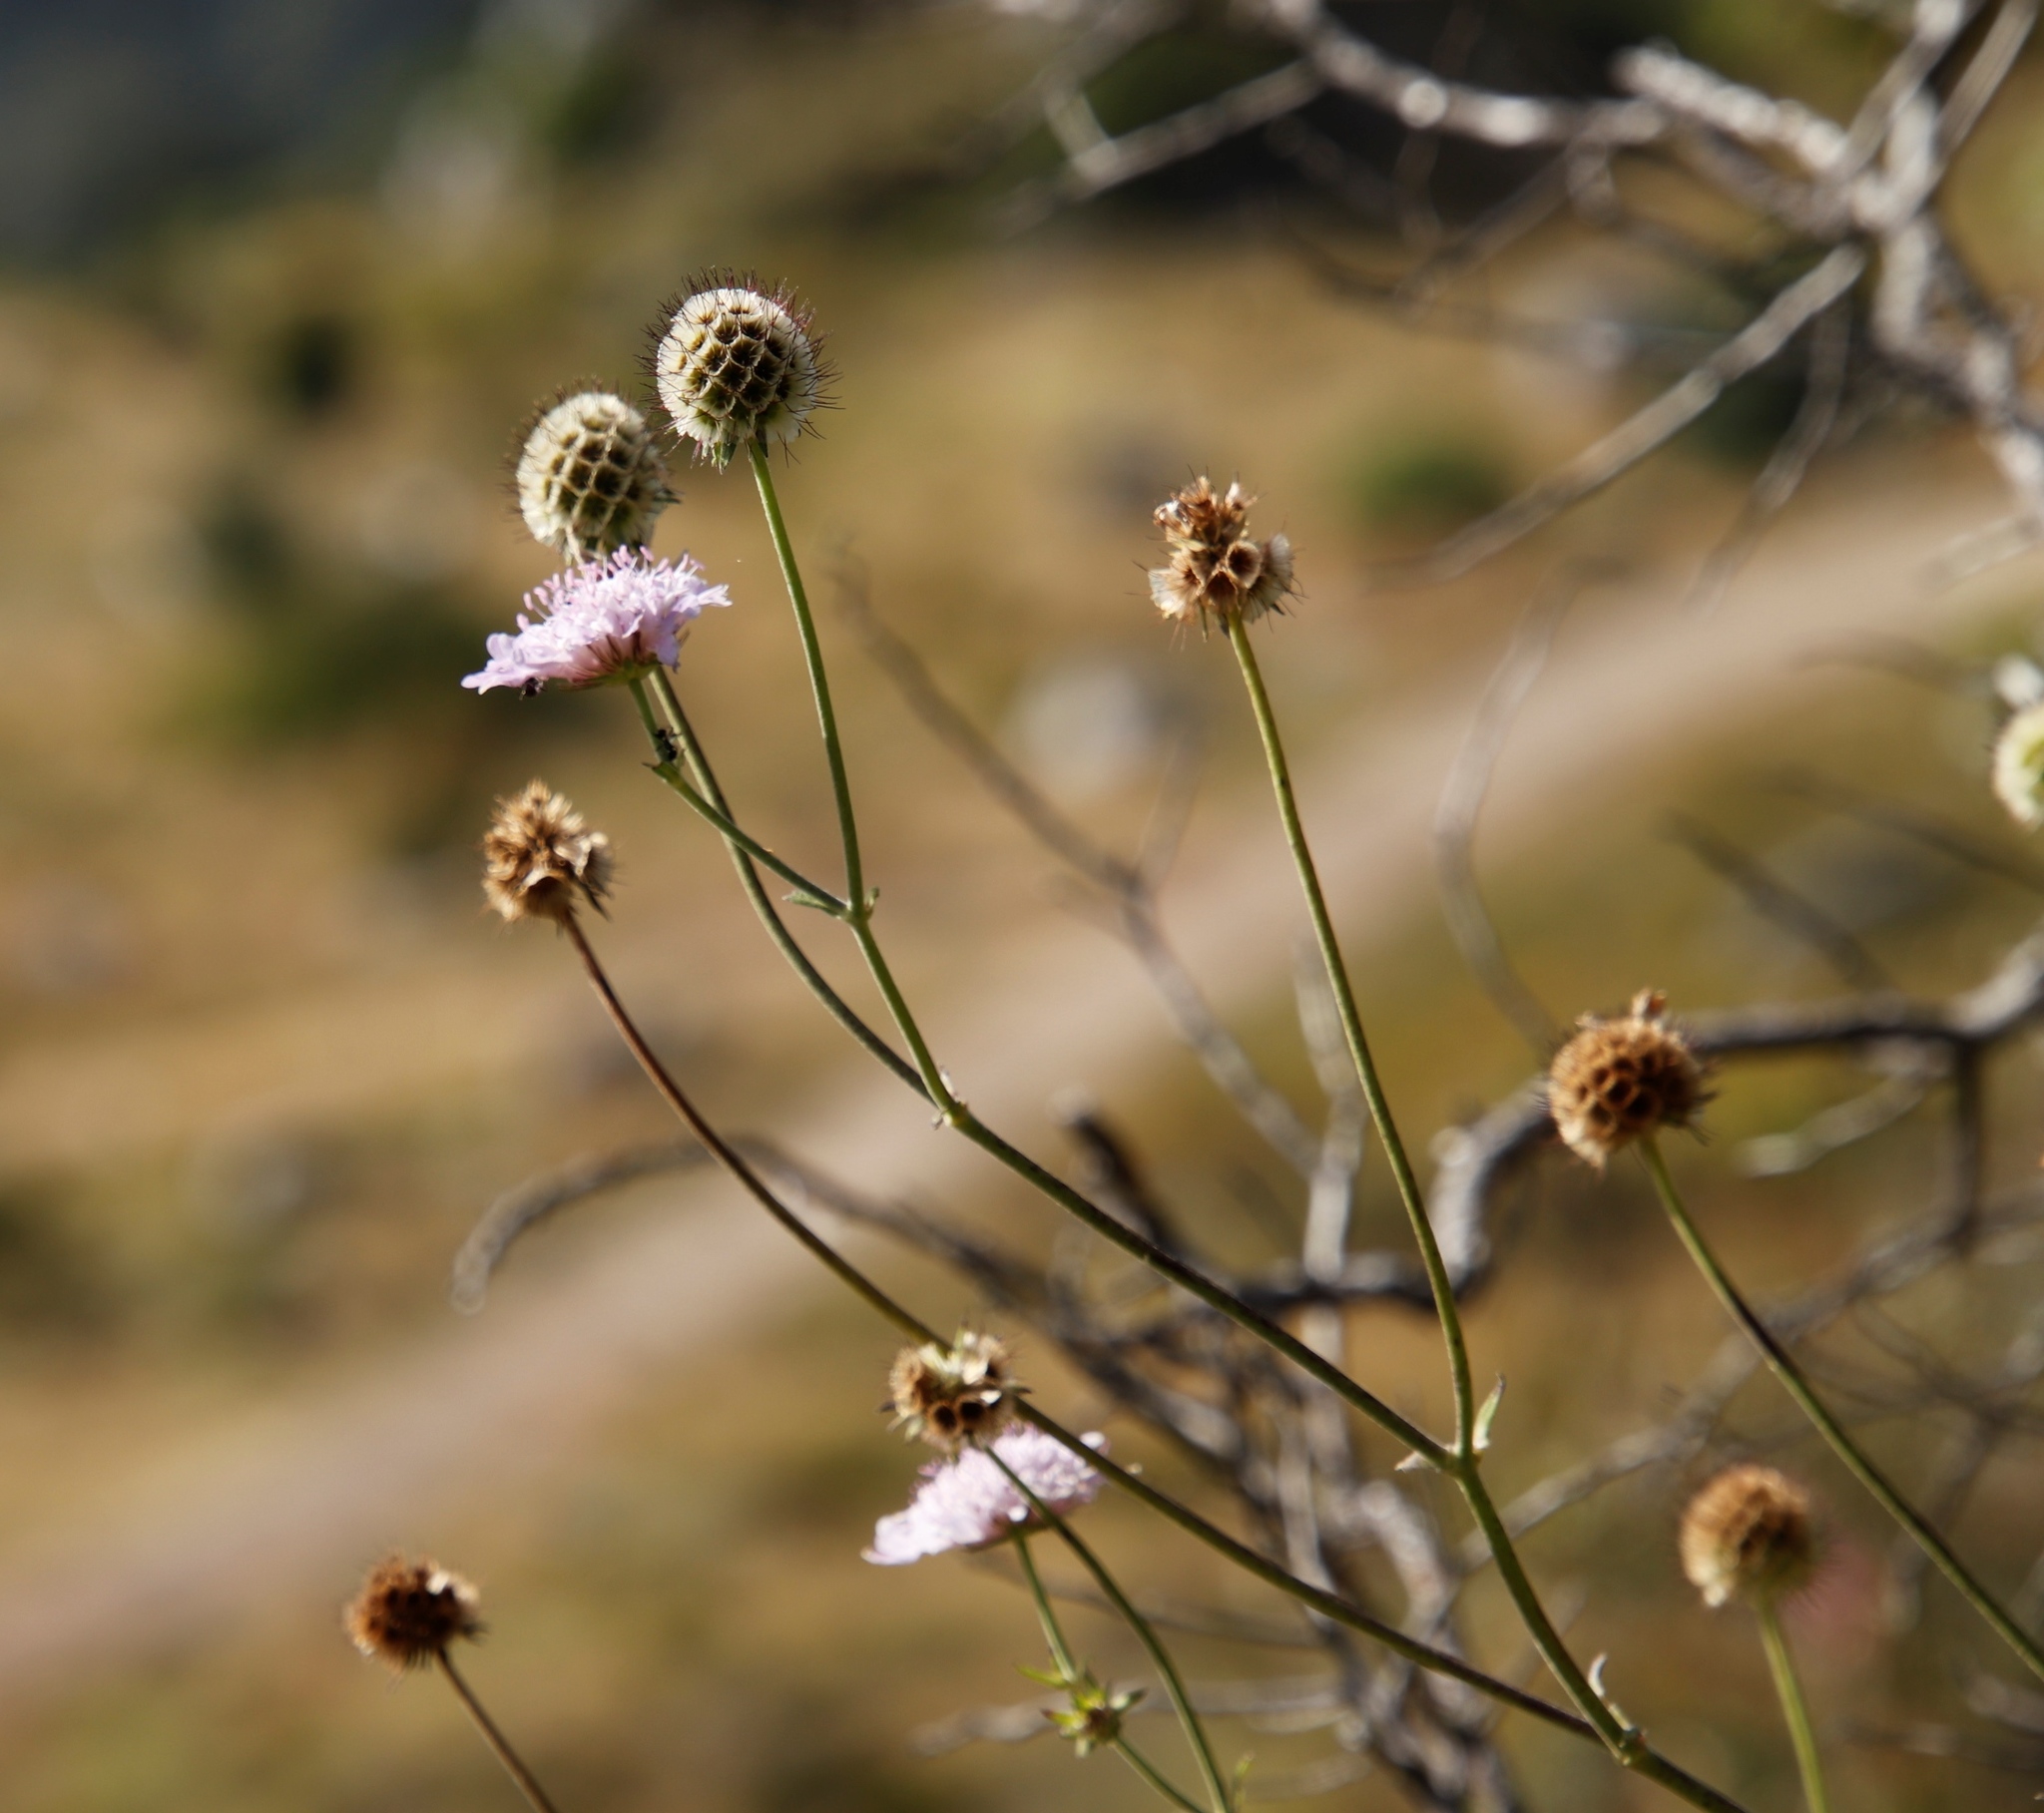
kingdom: Plantae
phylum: Tracheophyta
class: Magnoliopsida
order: Dipsacales
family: Caprifoliaceae
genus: Scabiosa
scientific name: Scabiosa africana
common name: Cape scabious
